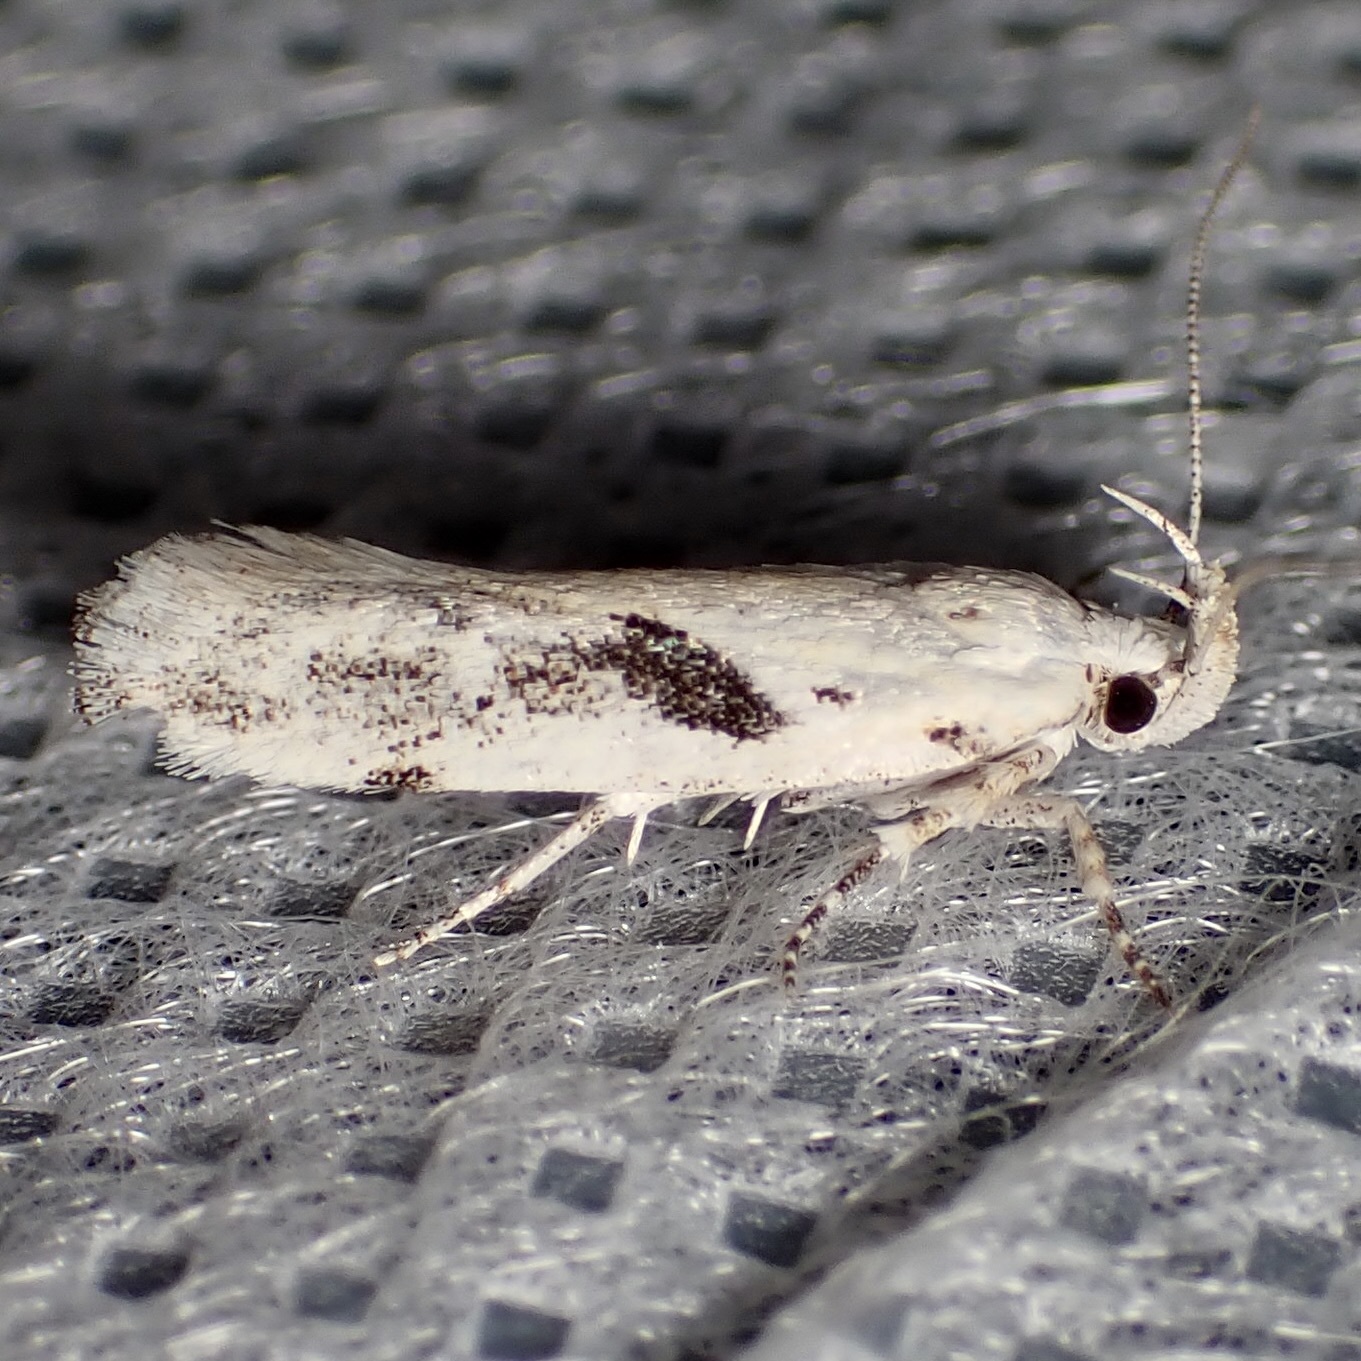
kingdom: Animalia
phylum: Arthropoda
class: Insecta
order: Lepidoptera
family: Gelechiidae
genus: Filatima
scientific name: Filatima depuratella
